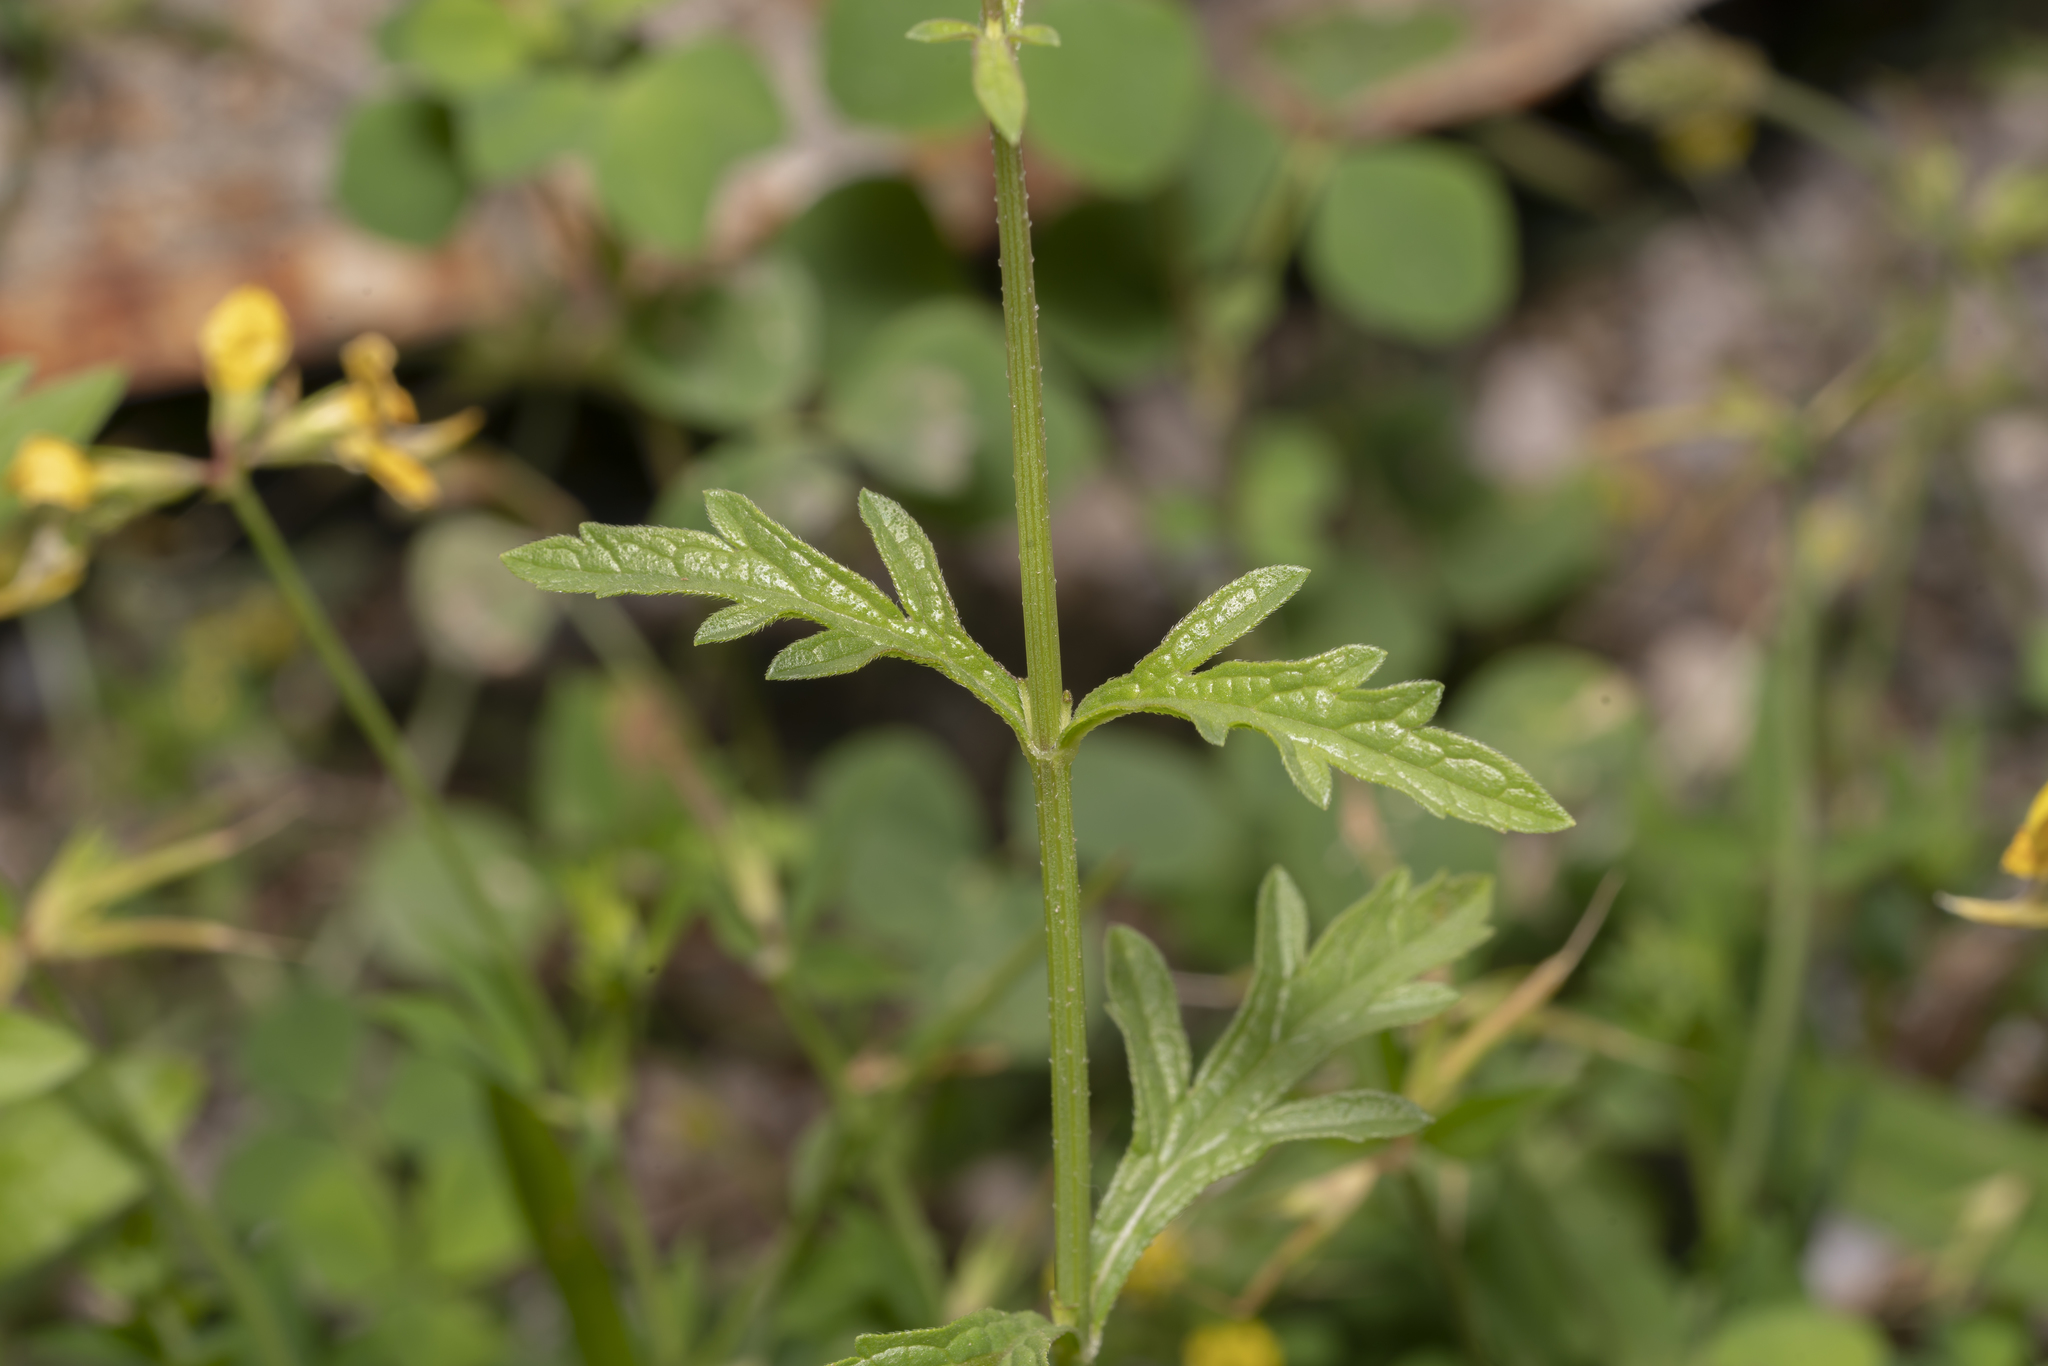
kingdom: Plantae
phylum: Tracheophyta
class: Magnoliopsida
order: Lamiales
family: Verbenaceae
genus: Verbena
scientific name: Verbena officinalis
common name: Vervain
